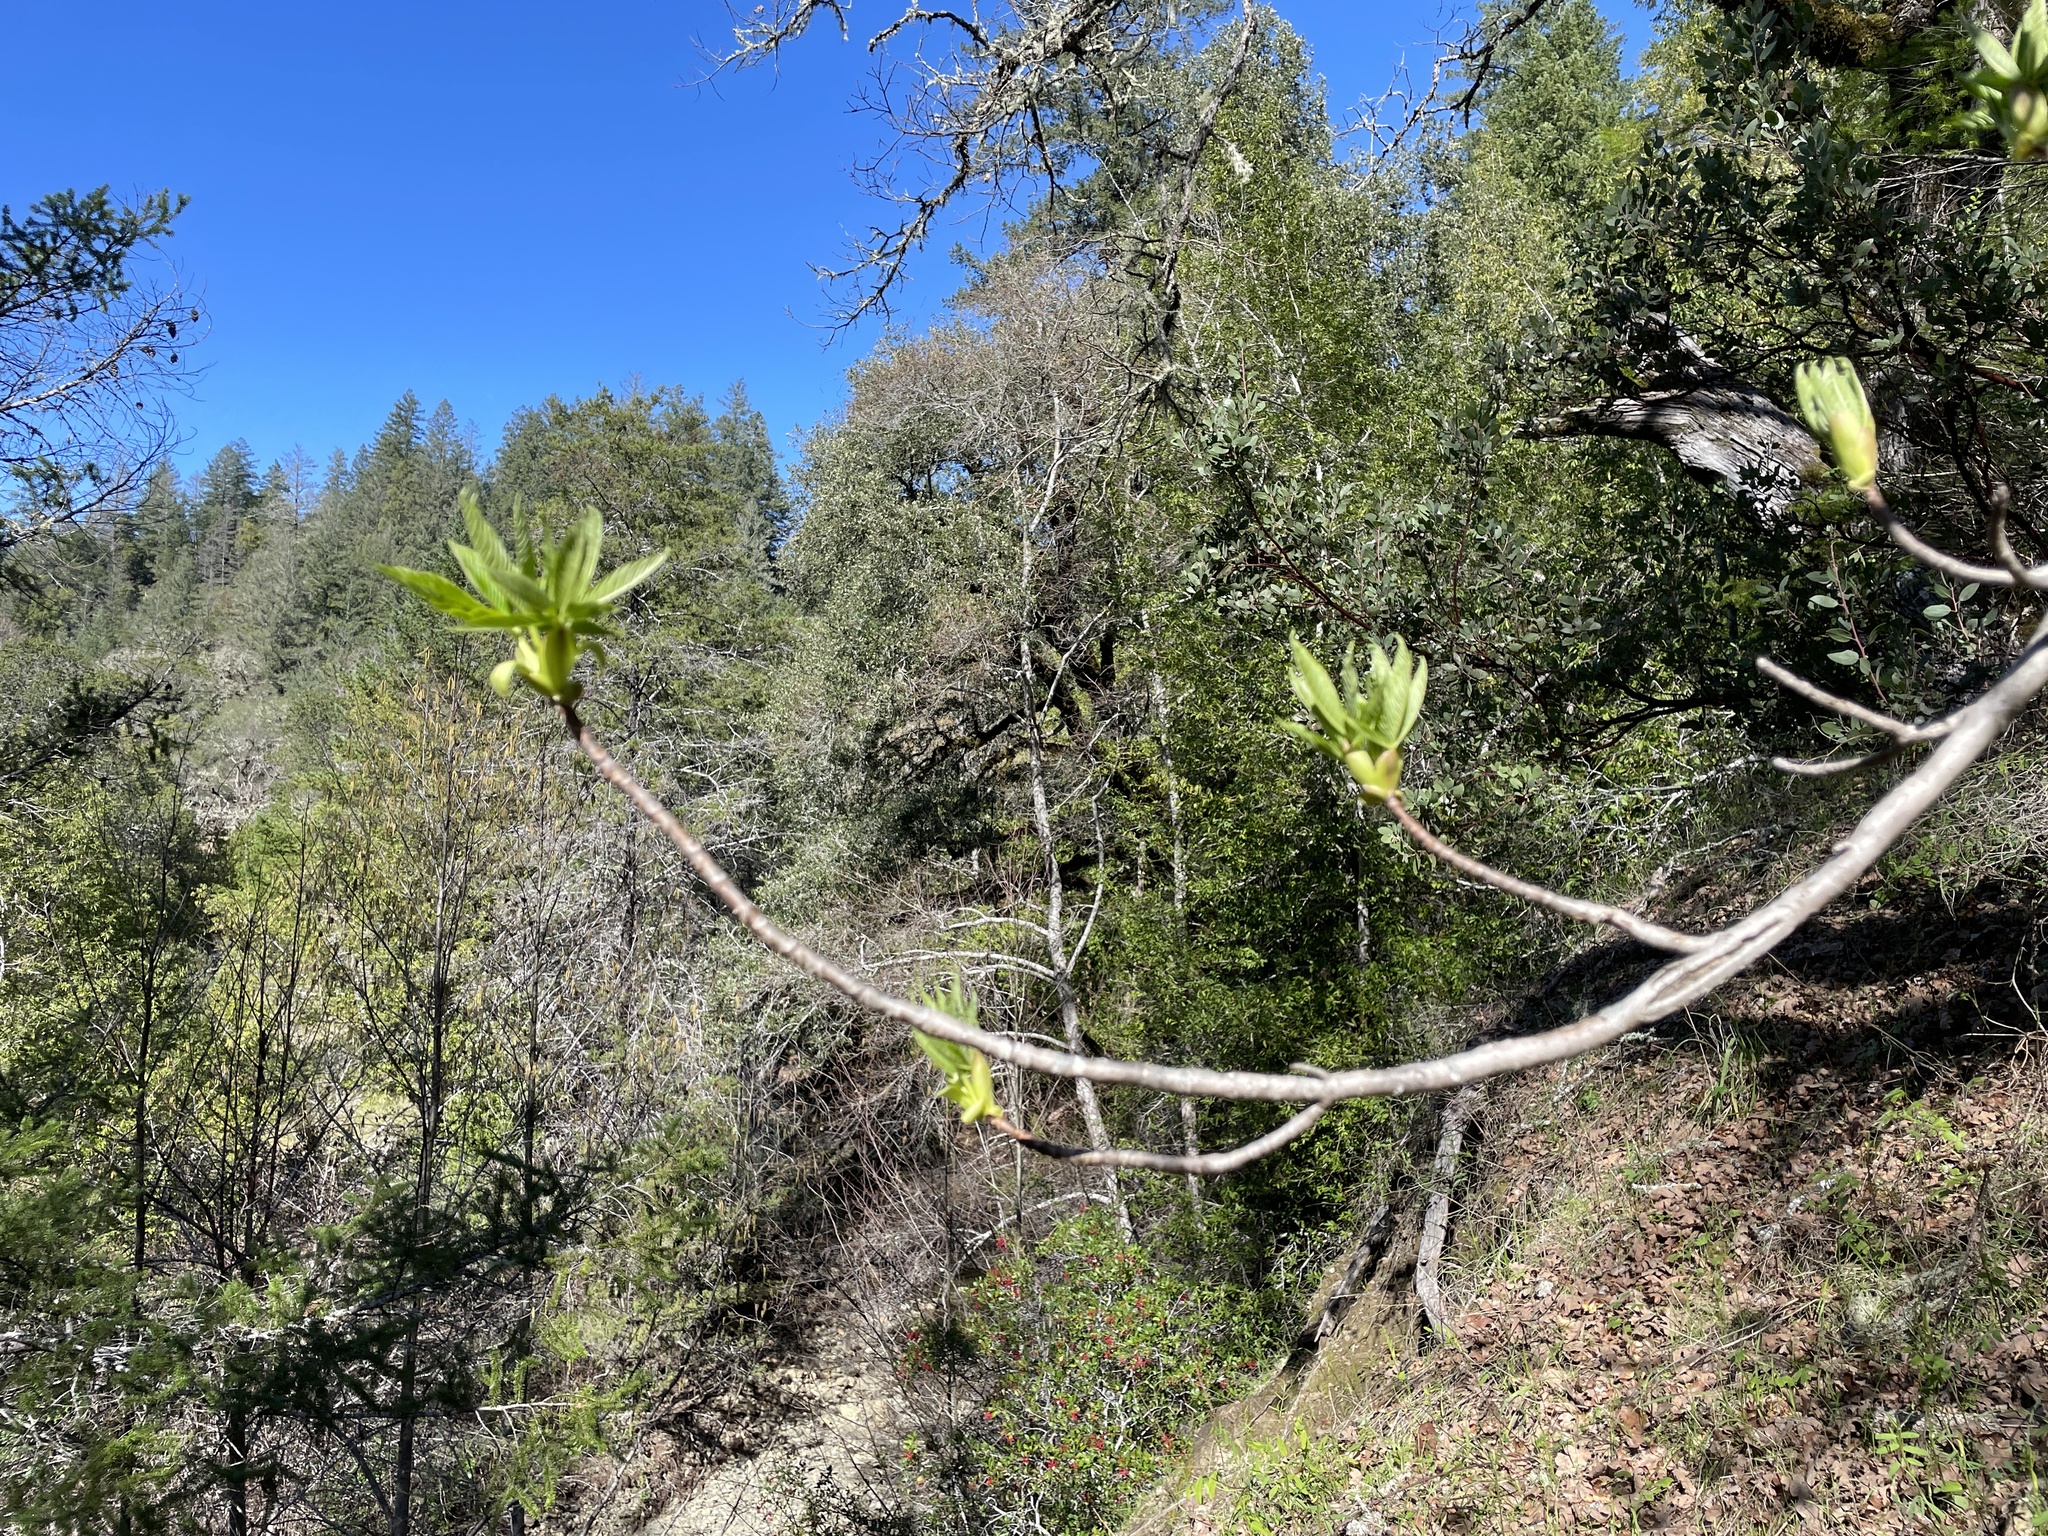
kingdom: Plantae
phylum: Tracheophyta
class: Magnoliopsida
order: Sapindales
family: Sapindaceae
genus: Aesculus
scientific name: Aesculus californica
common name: California buckeye
